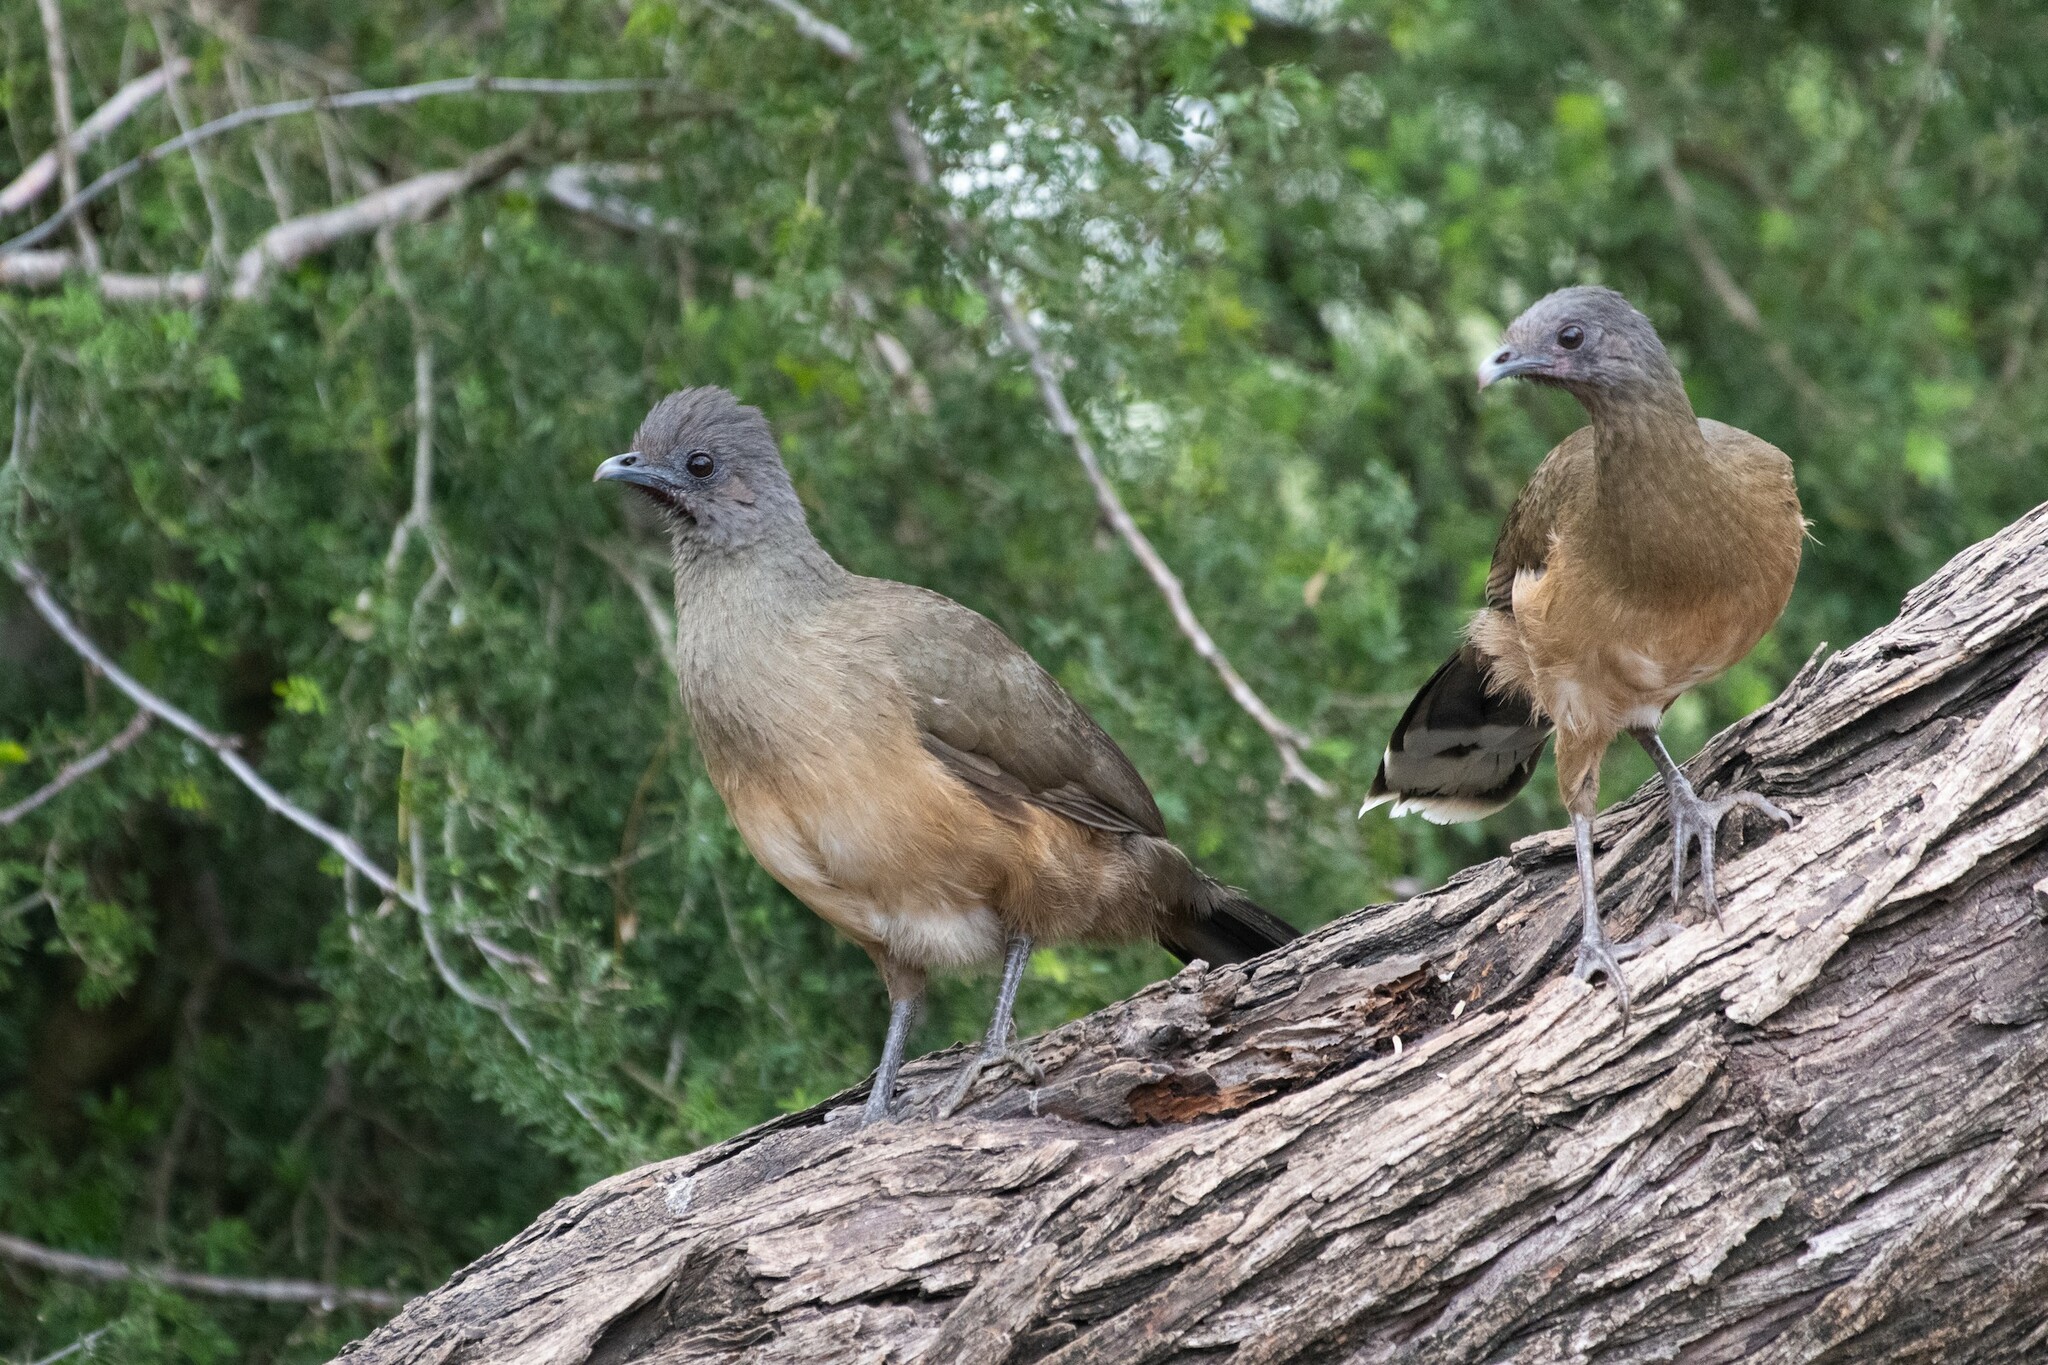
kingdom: Animalia
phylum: Chordata
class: Aves
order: Galliformes
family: Cracidae
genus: Ortalis
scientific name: Ortalis vetula
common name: Plain chachalaca
